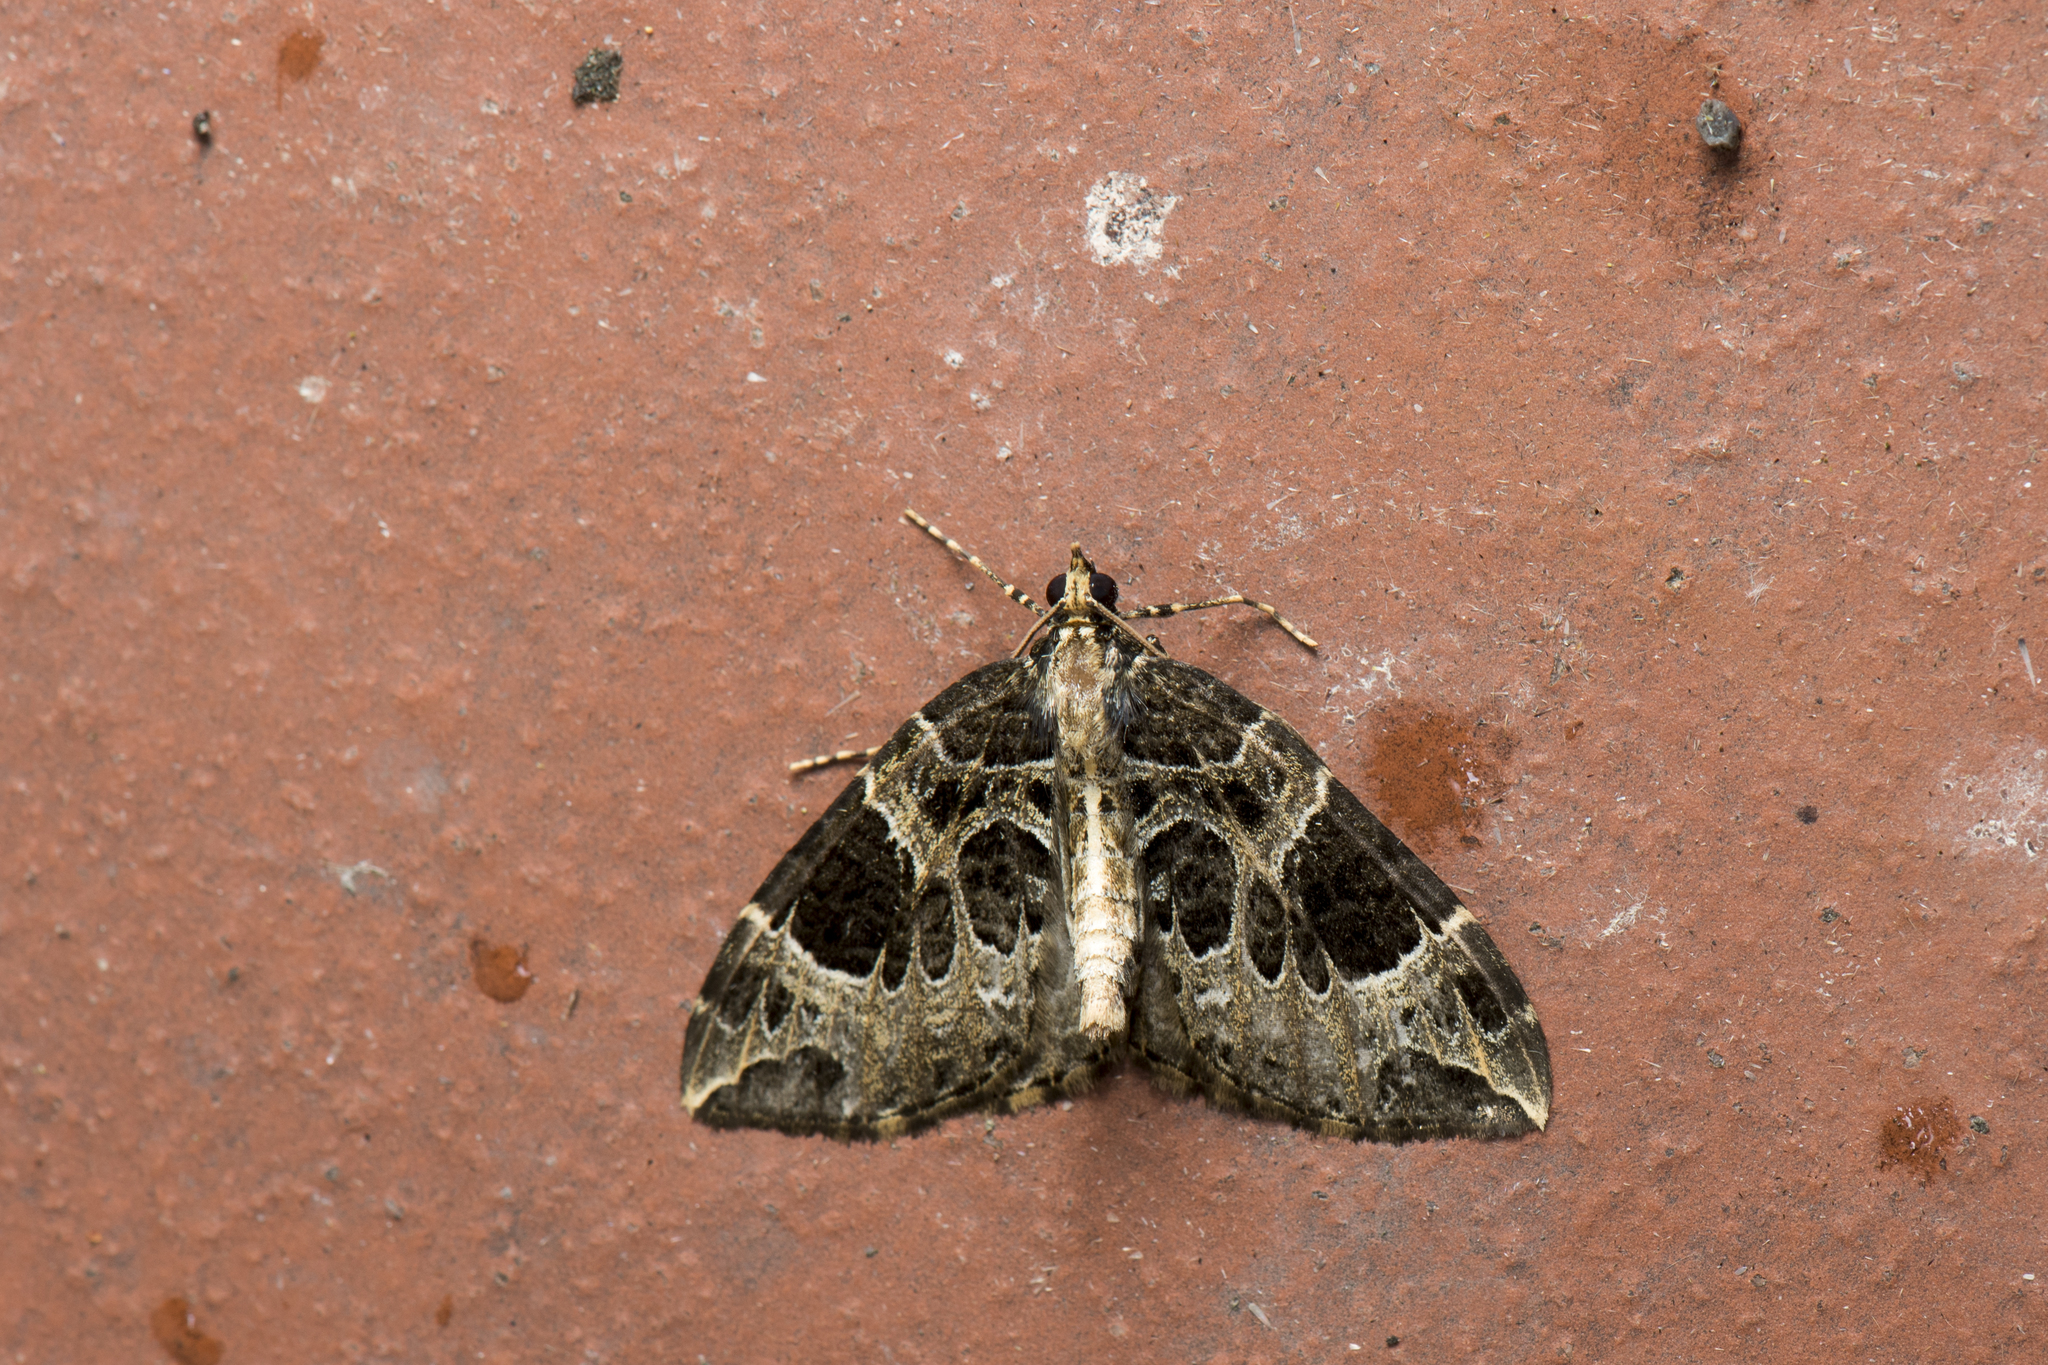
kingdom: Animalia
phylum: Arthropoda
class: Insecta
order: Lepidoptera
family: Geometridae
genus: Eustroma
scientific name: Eustroma melancholica
